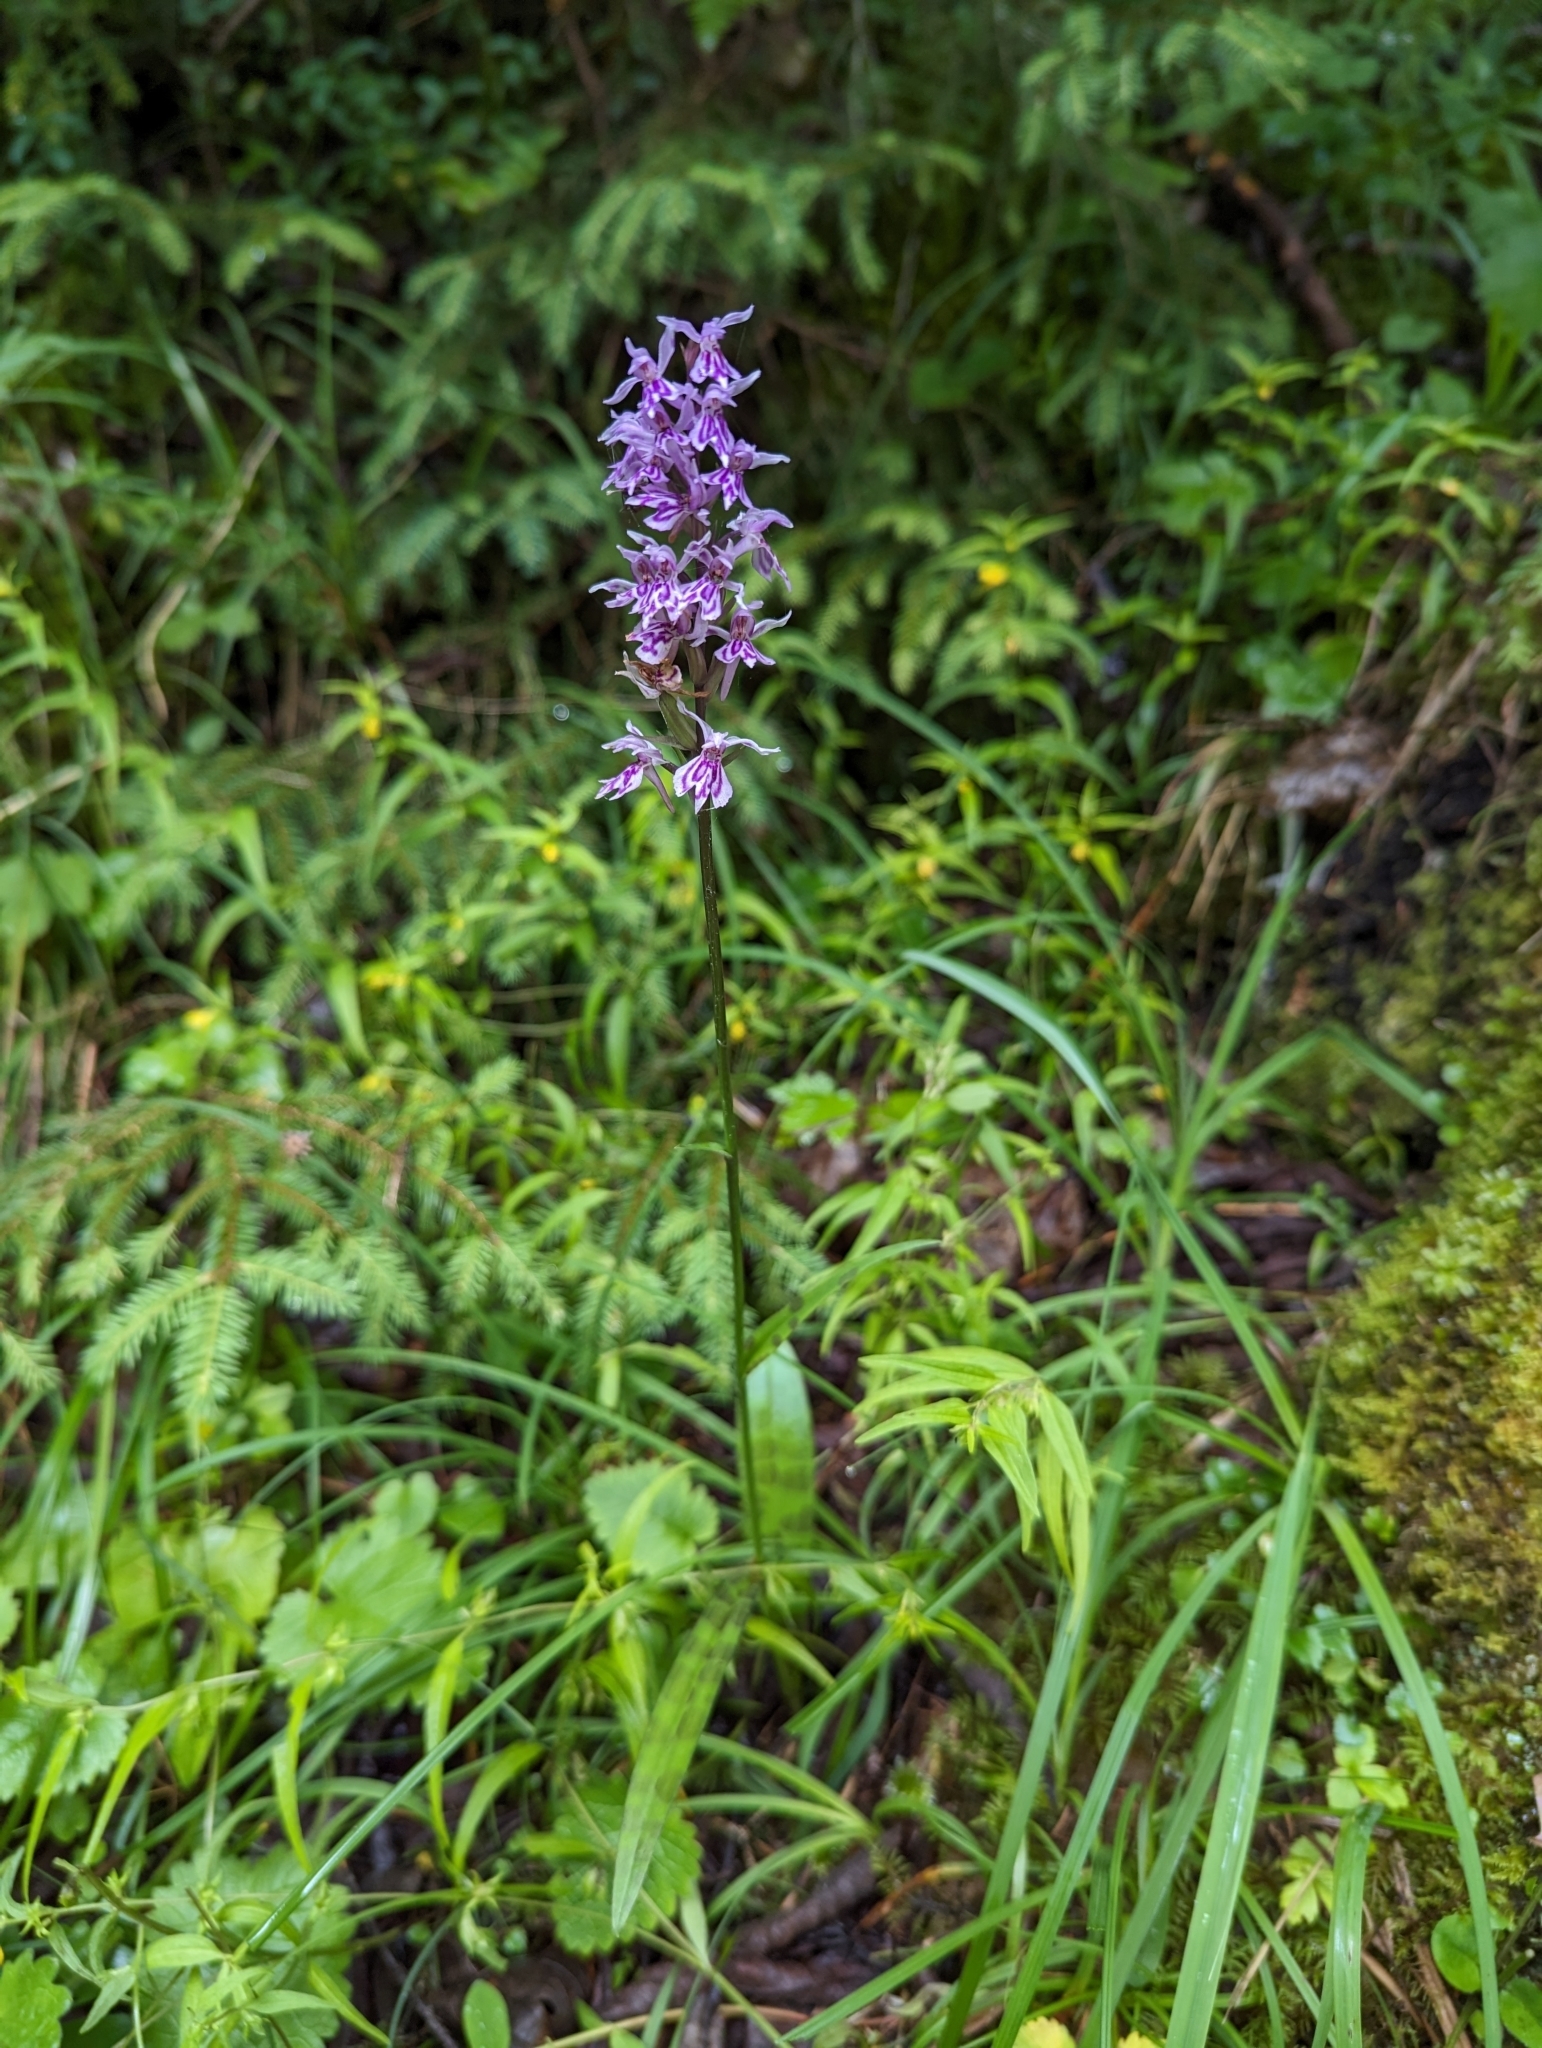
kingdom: Plantae
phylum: Tracheophyta
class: Liliopsida
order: Asparagales
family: Orchidaceae
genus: Dactylorhiza
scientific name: Dactylorhiza maculata
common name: Heath spotted-orchid
